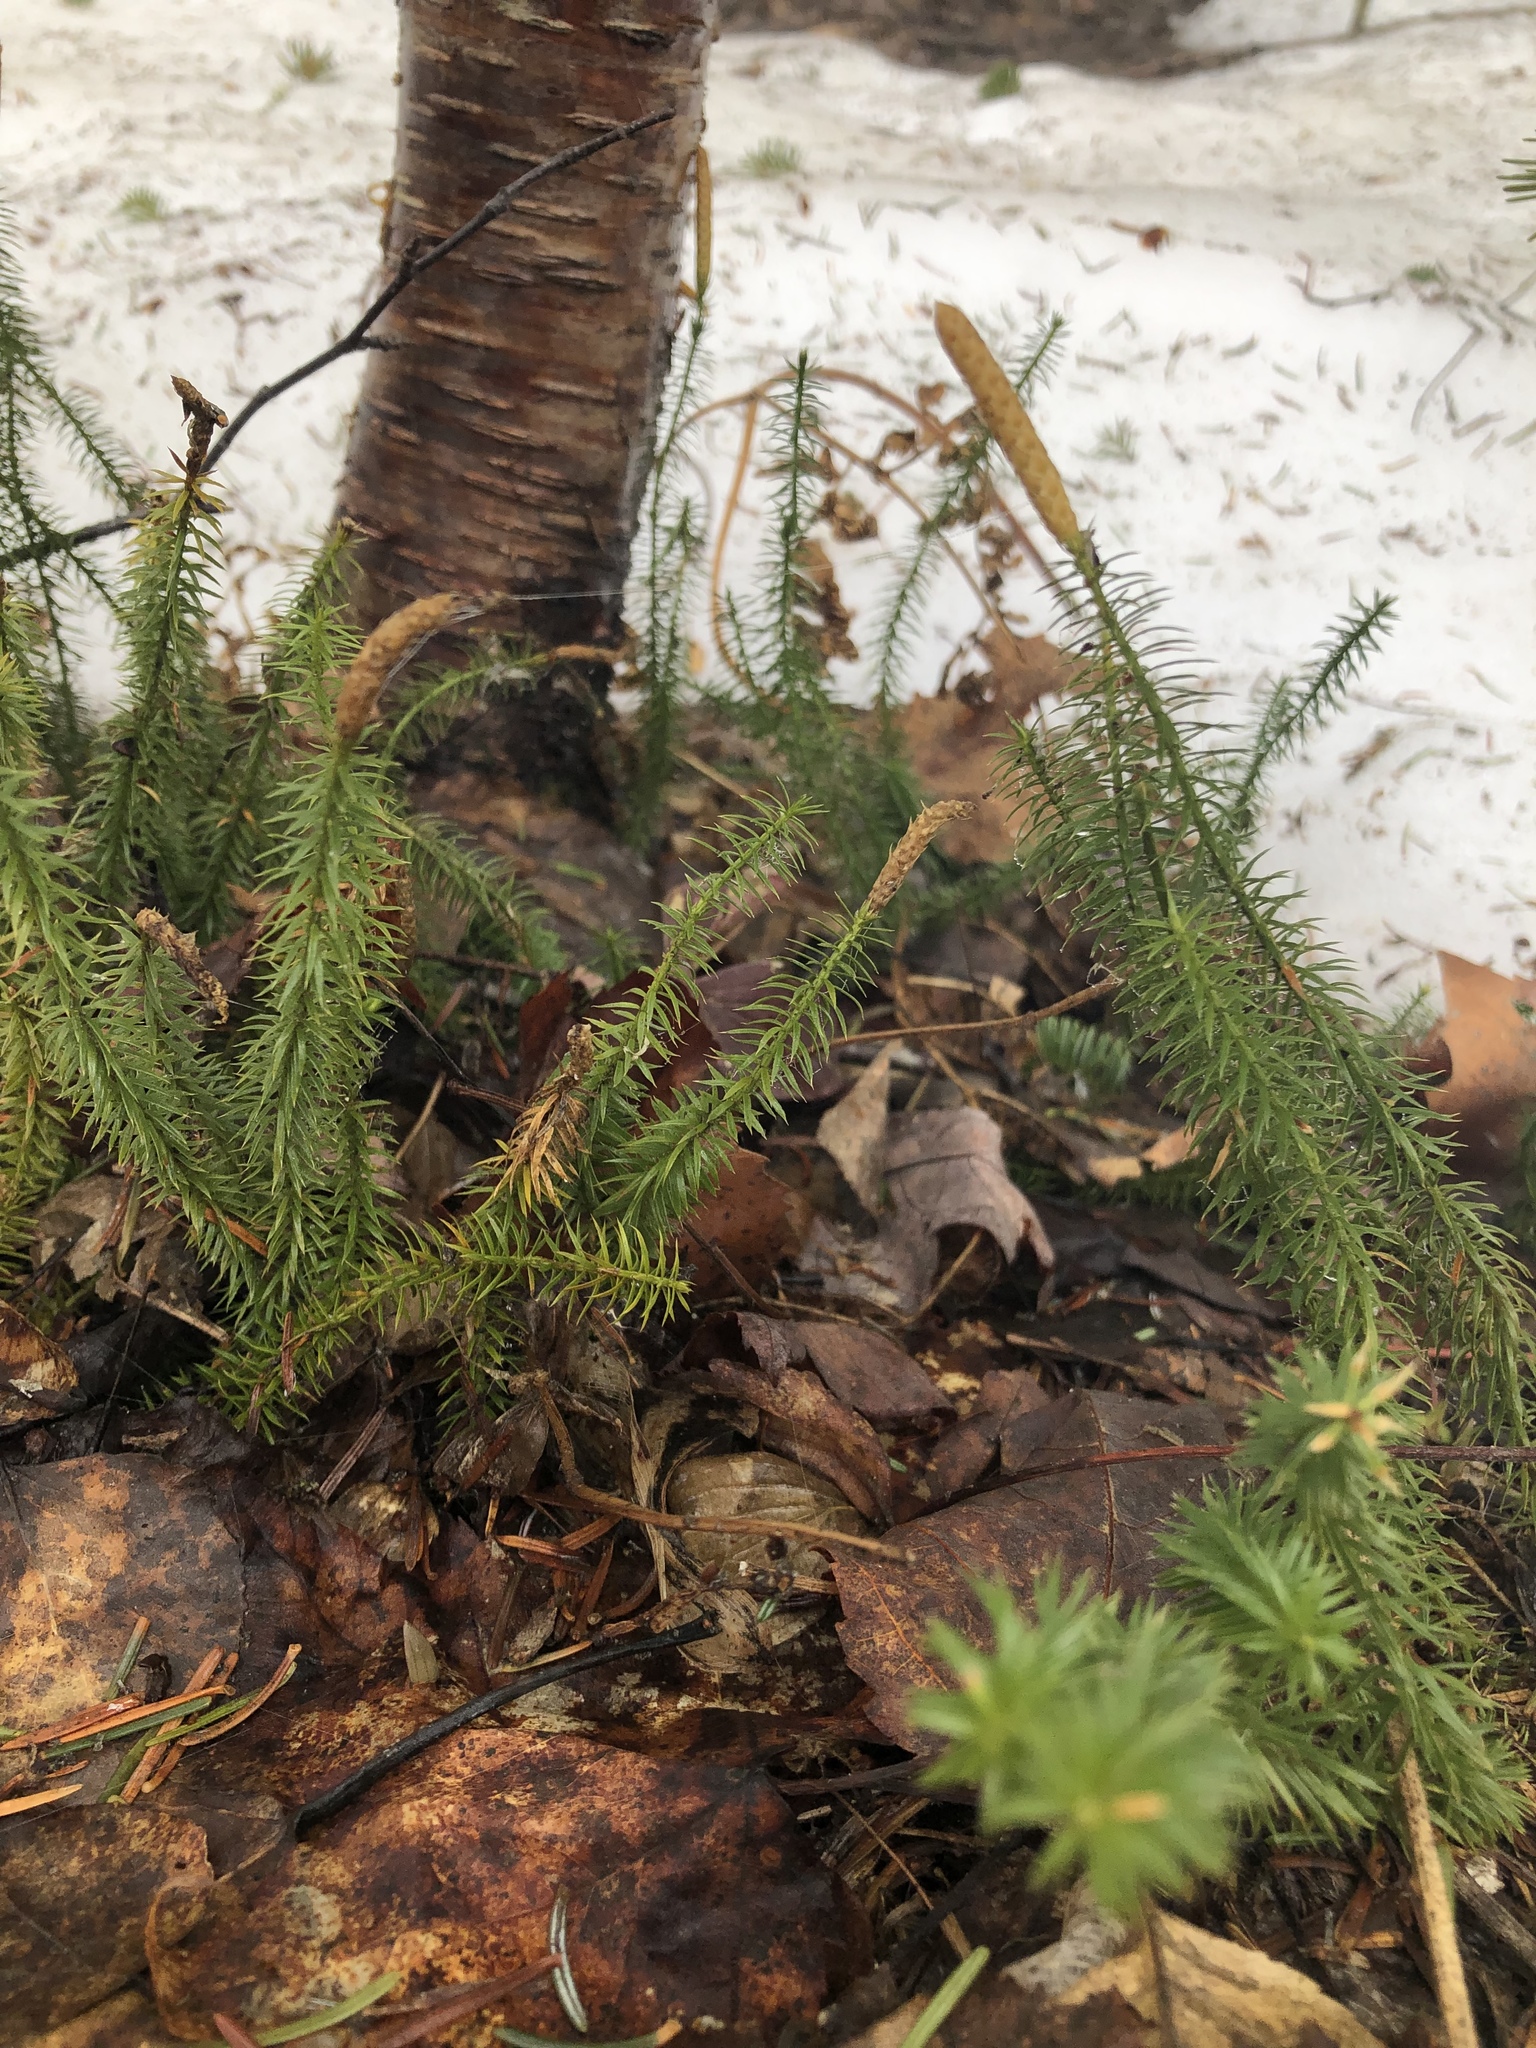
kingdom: Plantae
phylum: Tracheophyta
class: Lycopodiopsida
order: Lycopodiales
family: Lycopodiaceae
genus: Spinulum
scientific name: Spinulum annotinum
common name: Interrupted club-moss
